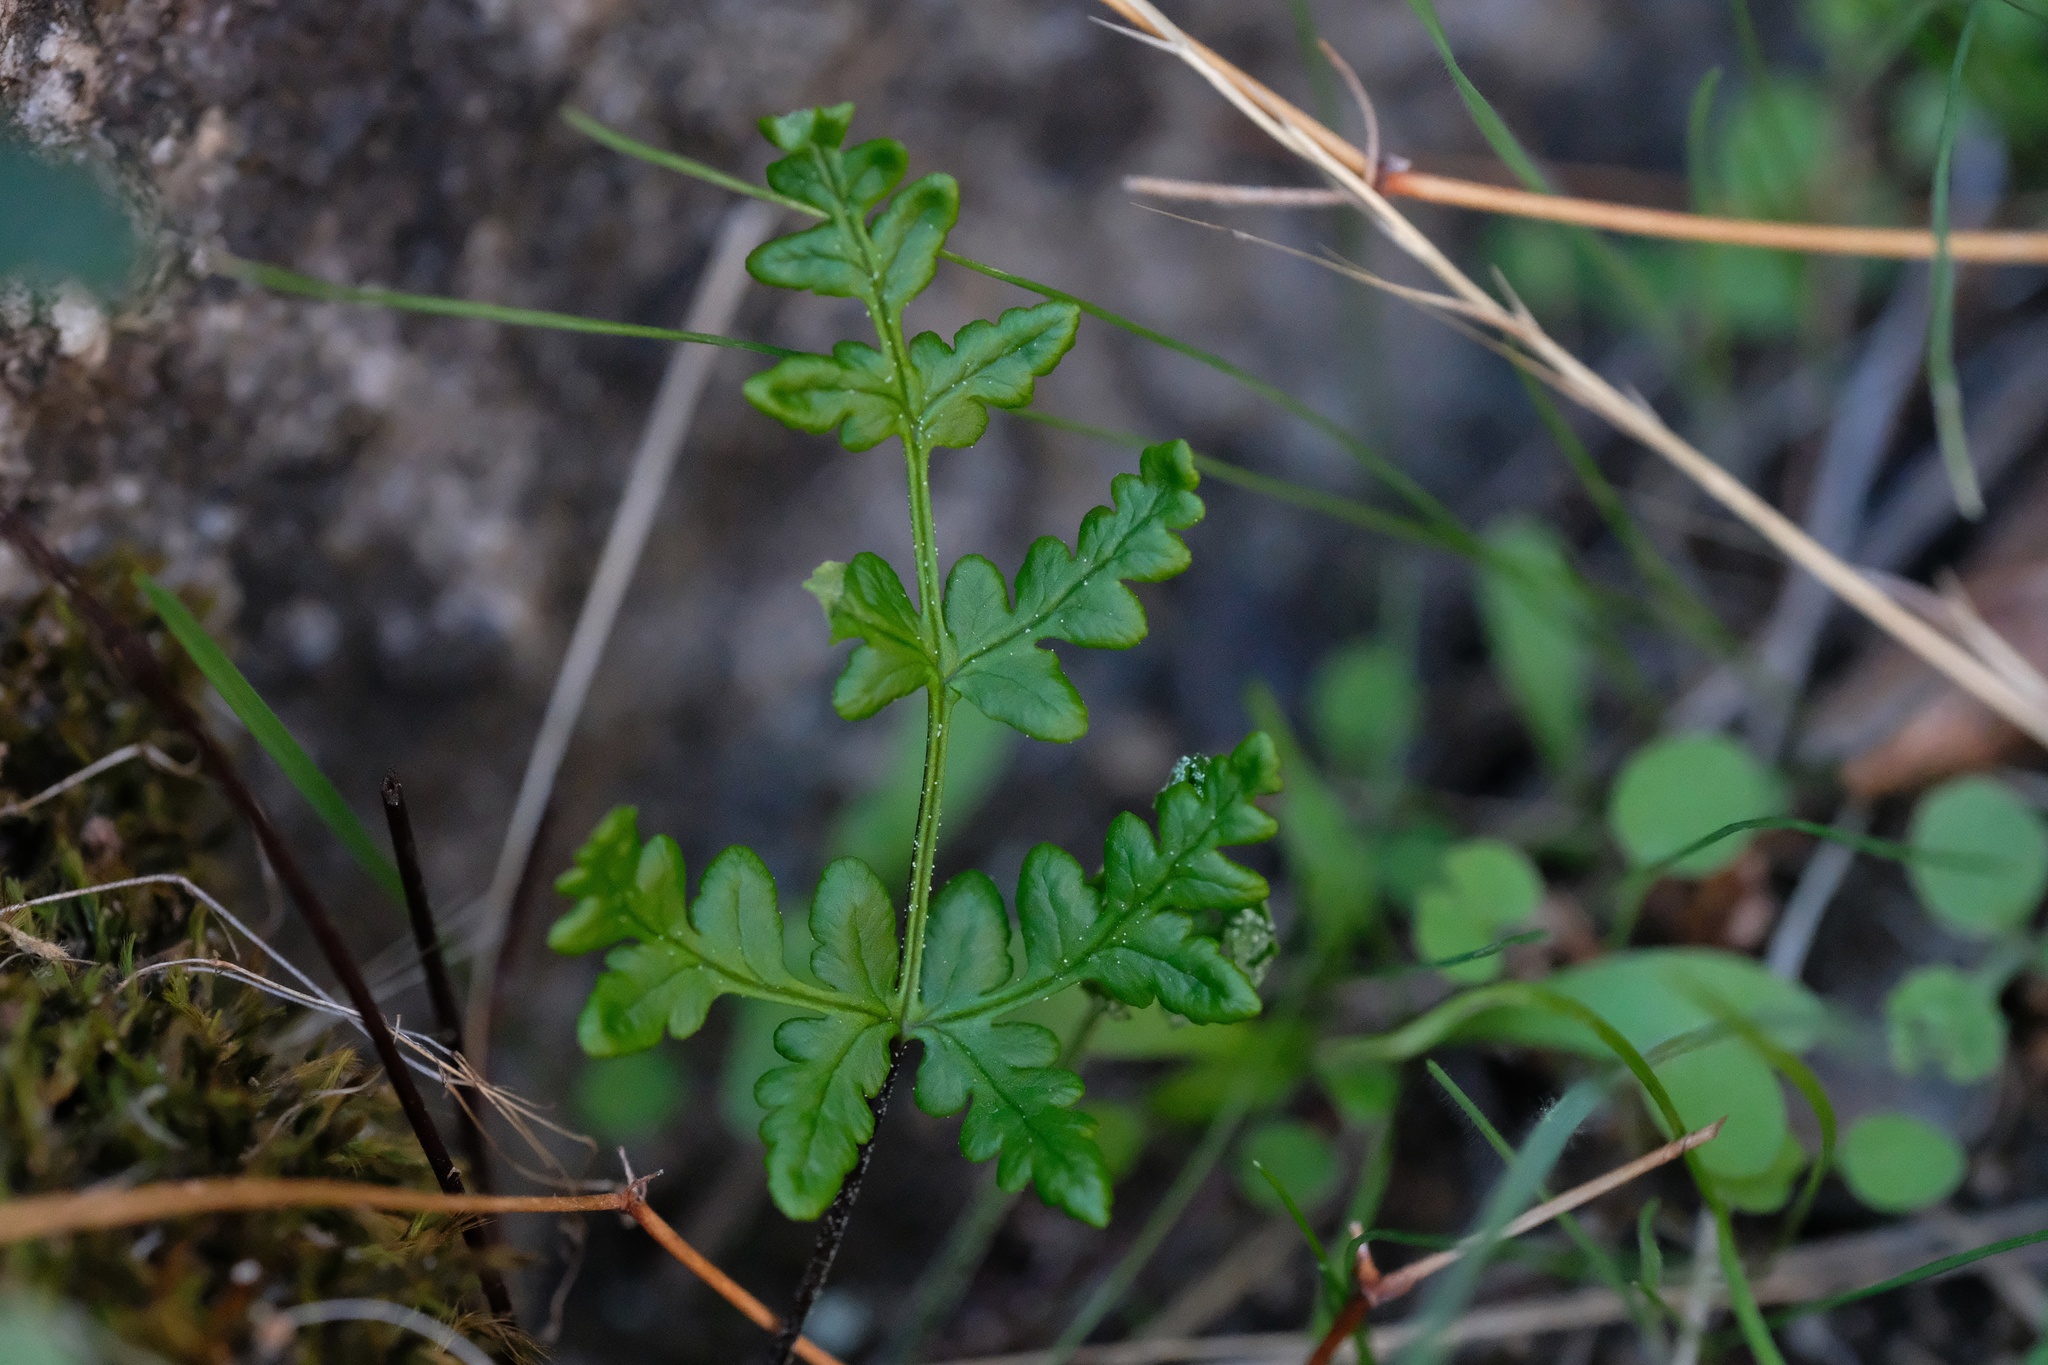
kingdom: Plantae
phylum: Tracheophyta
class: Polypodiopsida
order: Polypodiales
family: Pteridaceae
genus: Pentagramma
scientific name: Pentagramma triangularis
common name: Gold fern
